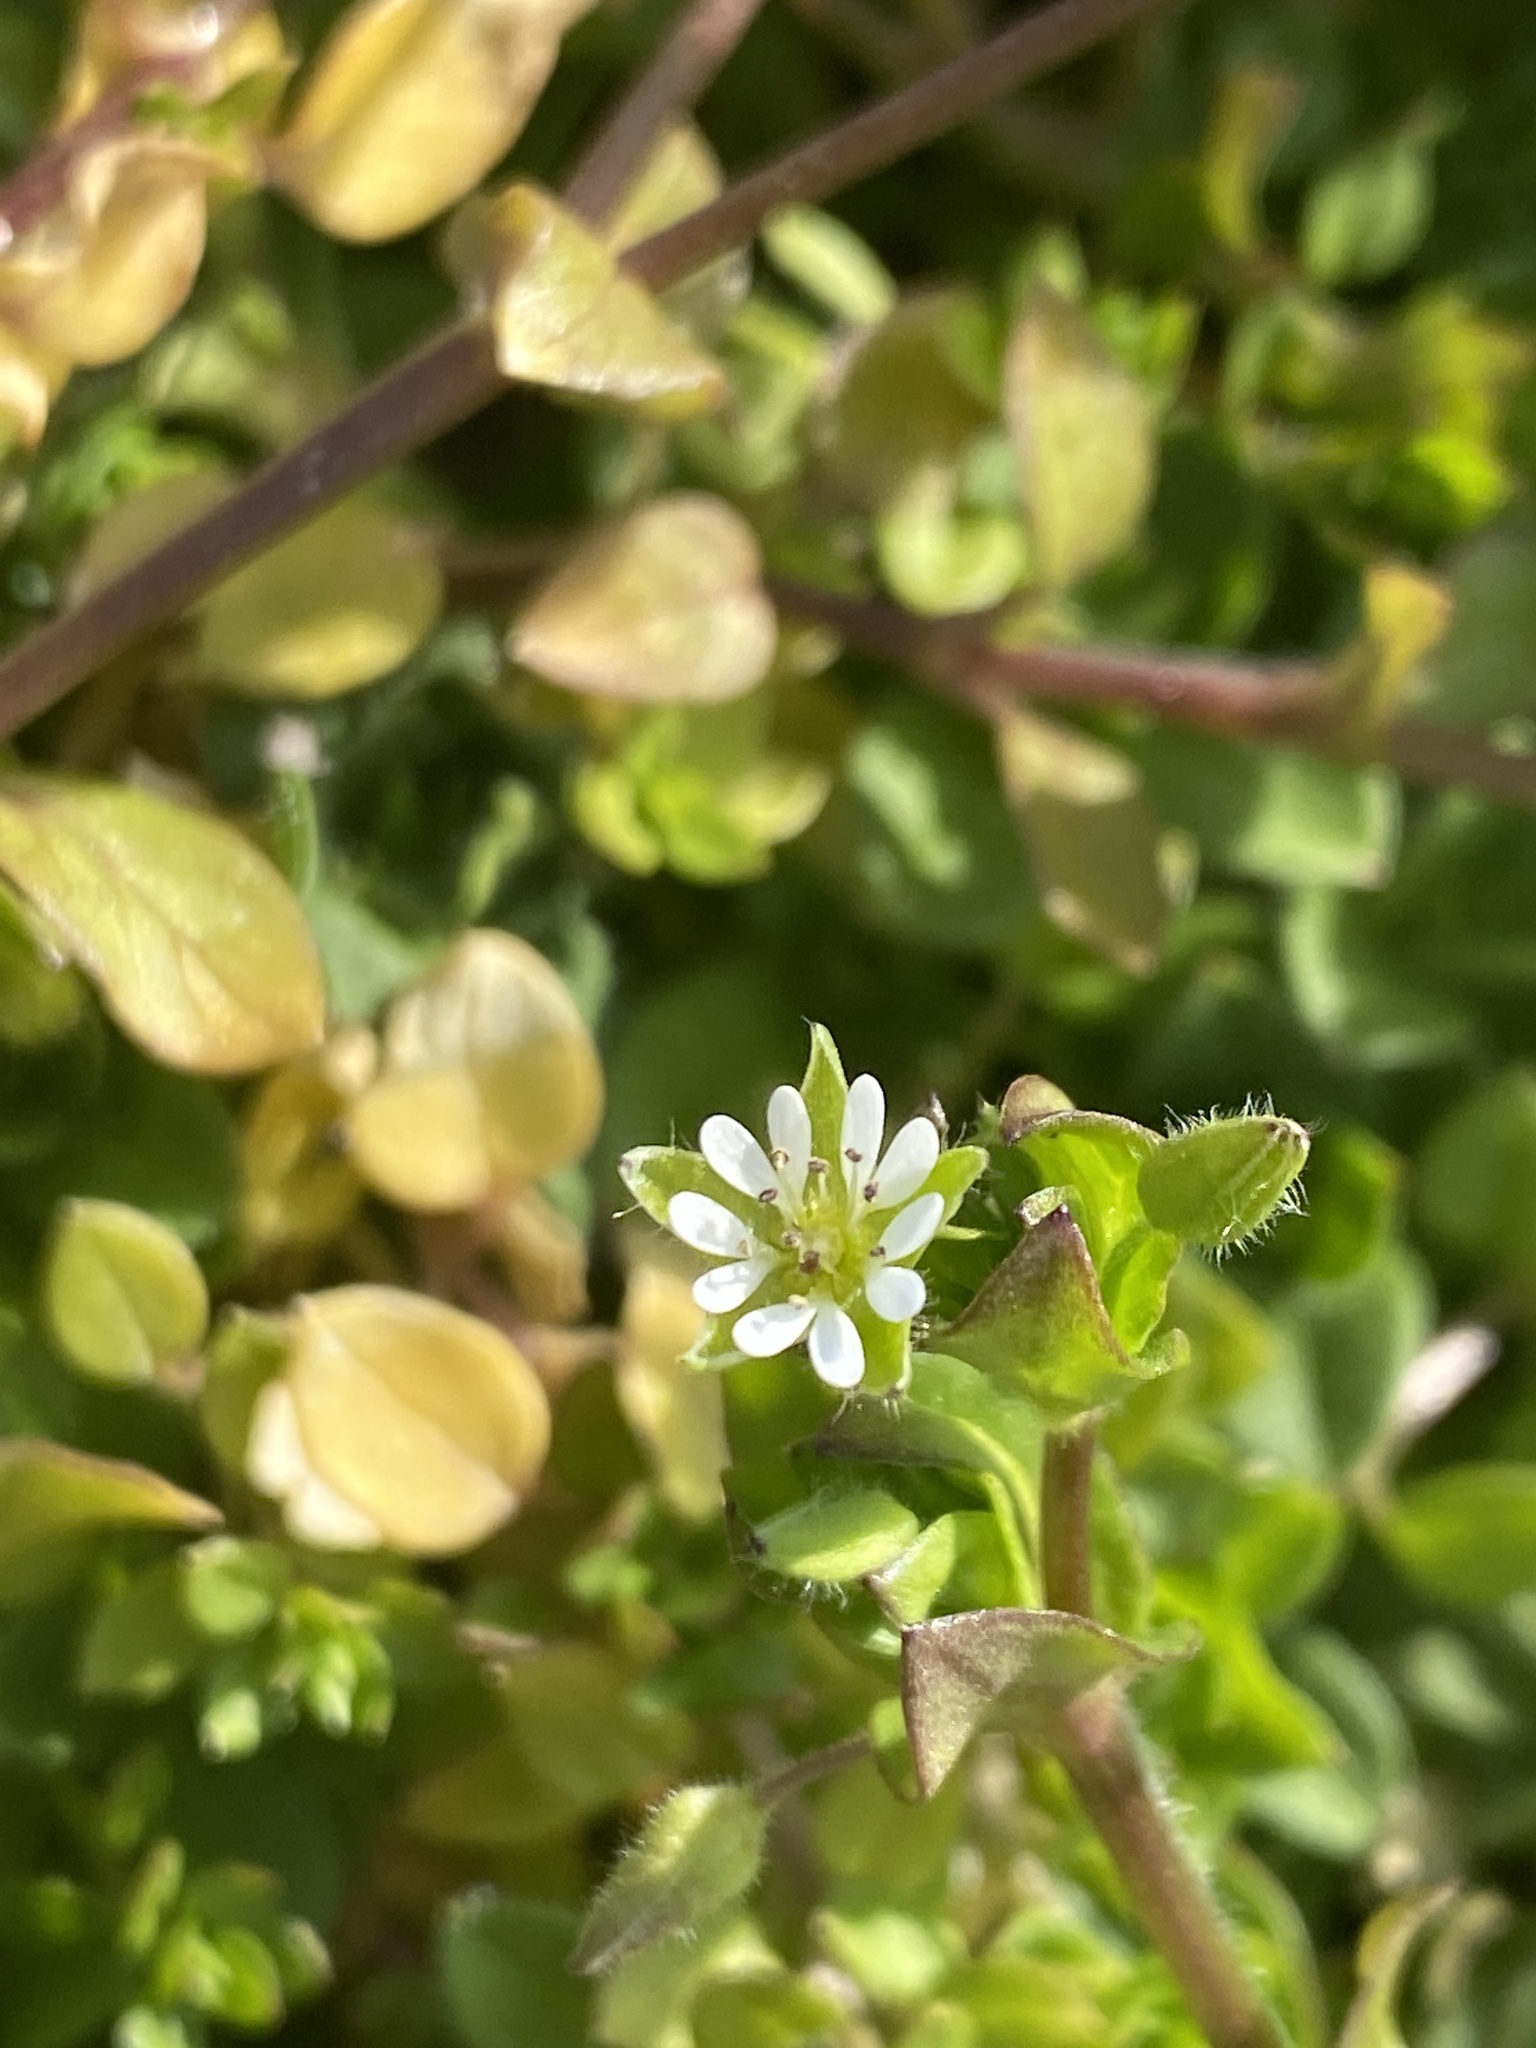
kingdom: Plantae
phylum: Tracheophyta
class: Magnoliopsida
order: Caryophyllales
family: Caryophyllaceae
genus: Stellaria
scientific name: Stellaria media
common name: Common chickweed
